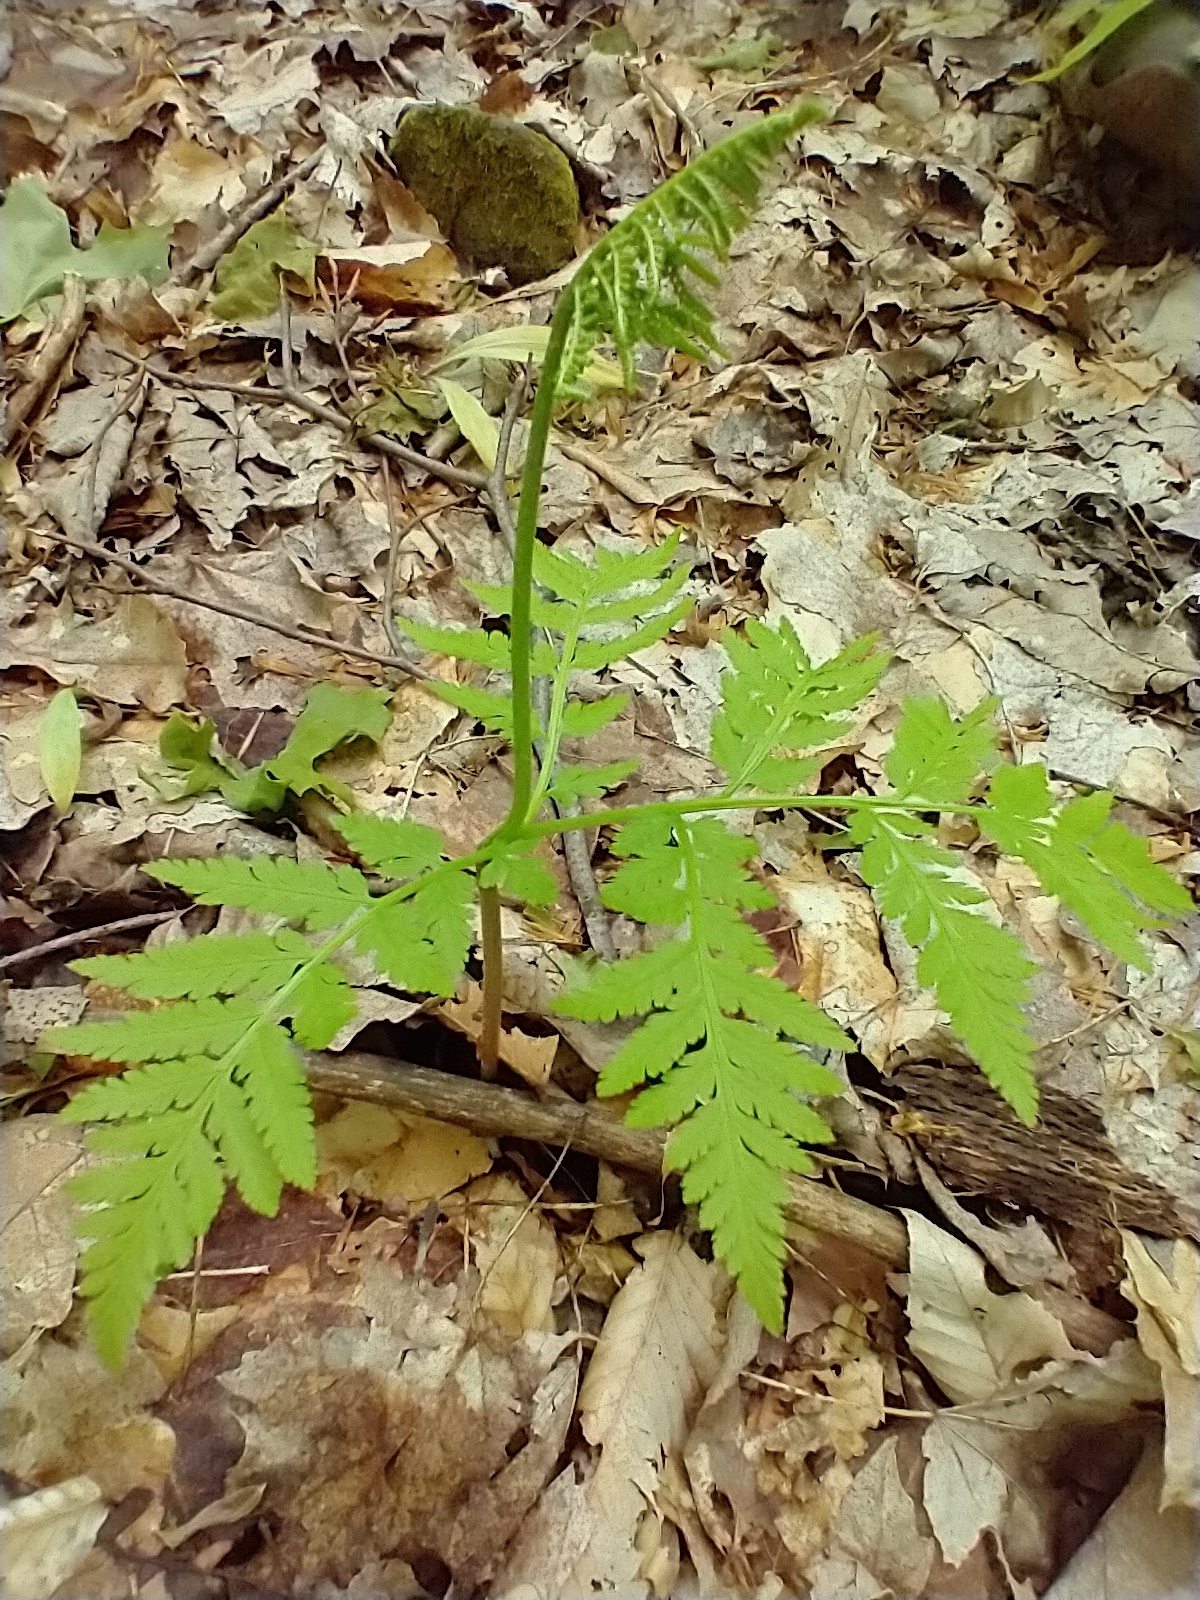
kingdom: Plantae
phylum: Tracheophyta
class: Polypodiopsida
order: Ophioglossales
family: Ophioglossaceae
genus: Botrypus
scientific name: Botrypus virginianus
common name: Common grapefern
